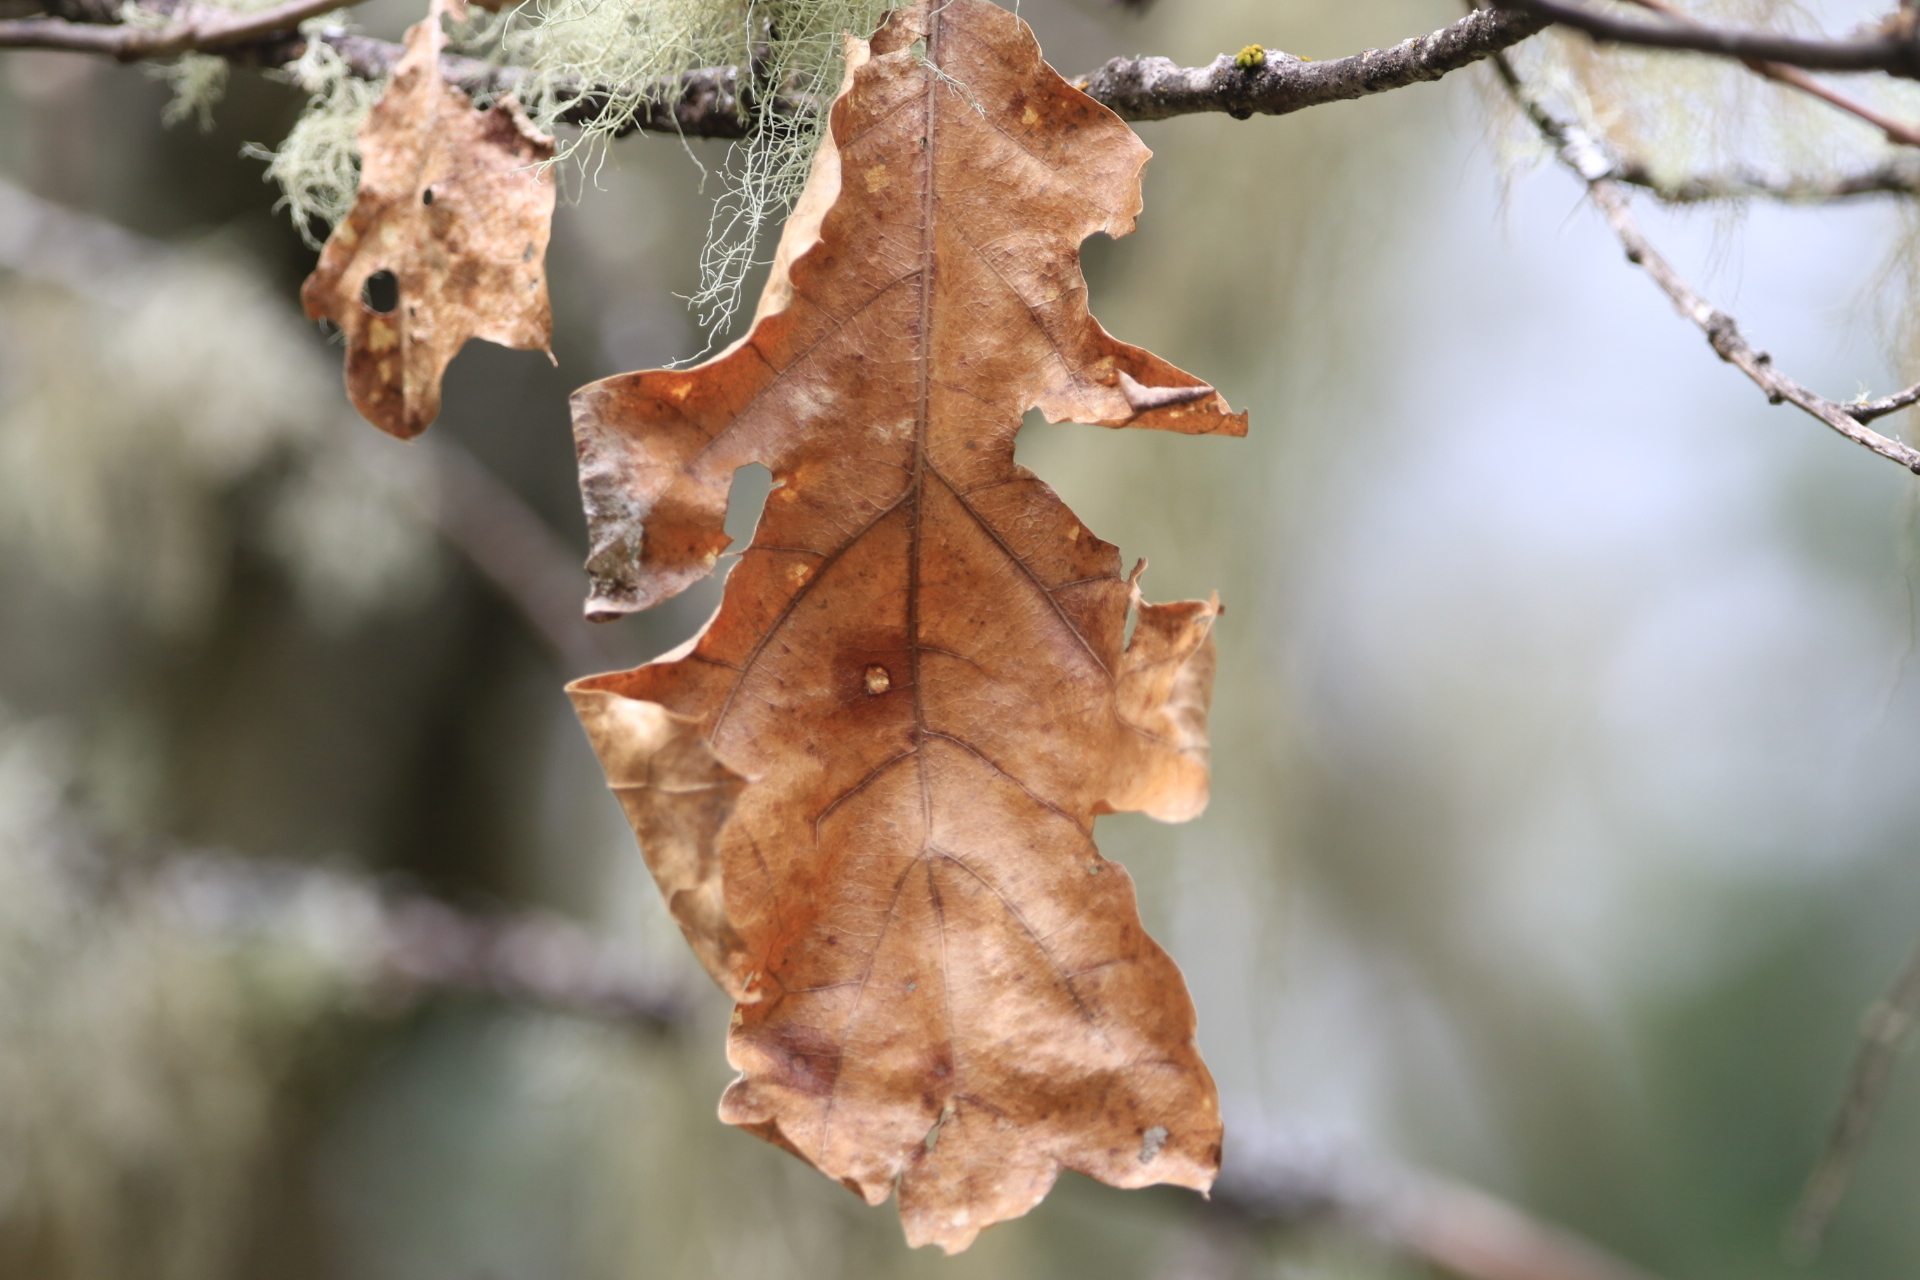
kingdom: Plantae
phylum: Tracheophyta
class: Magnoliopsida
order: Fagales
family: Fagaceae
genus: Quercus
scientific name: Quercus kelloggii
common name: California black oak
